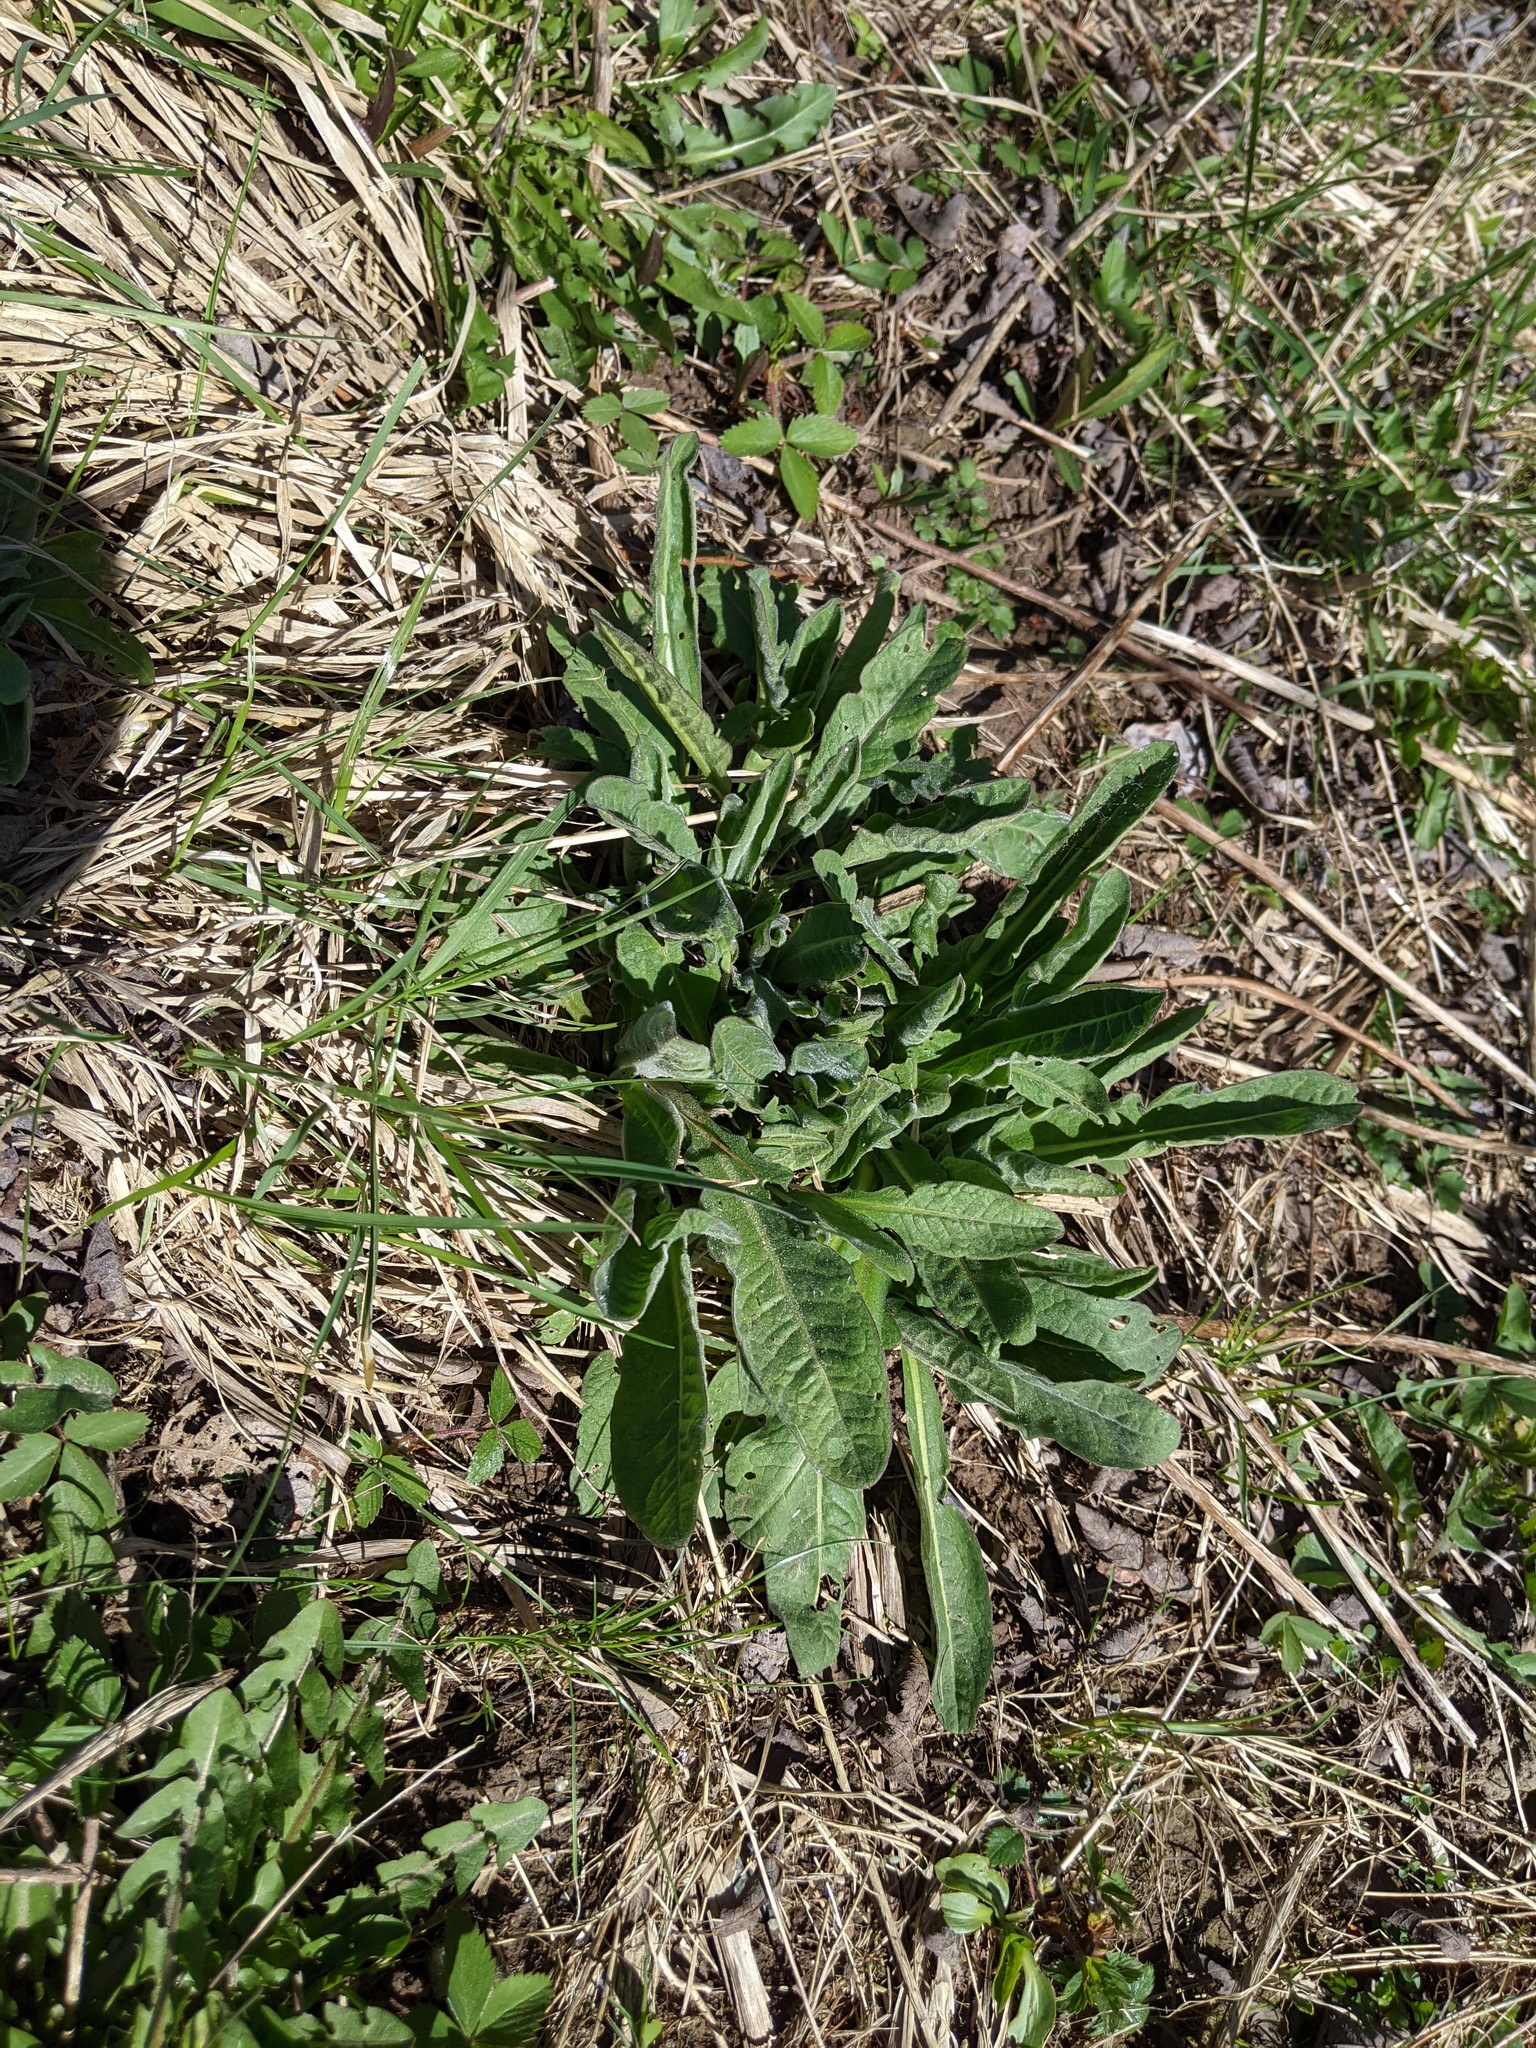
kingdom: Plantae
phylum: Tracheophyta
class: Magnoliopsida
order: Asterales
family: Asteraceae
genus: Centaurea
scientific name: Centaurea nigra
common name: Lesser knapweed
